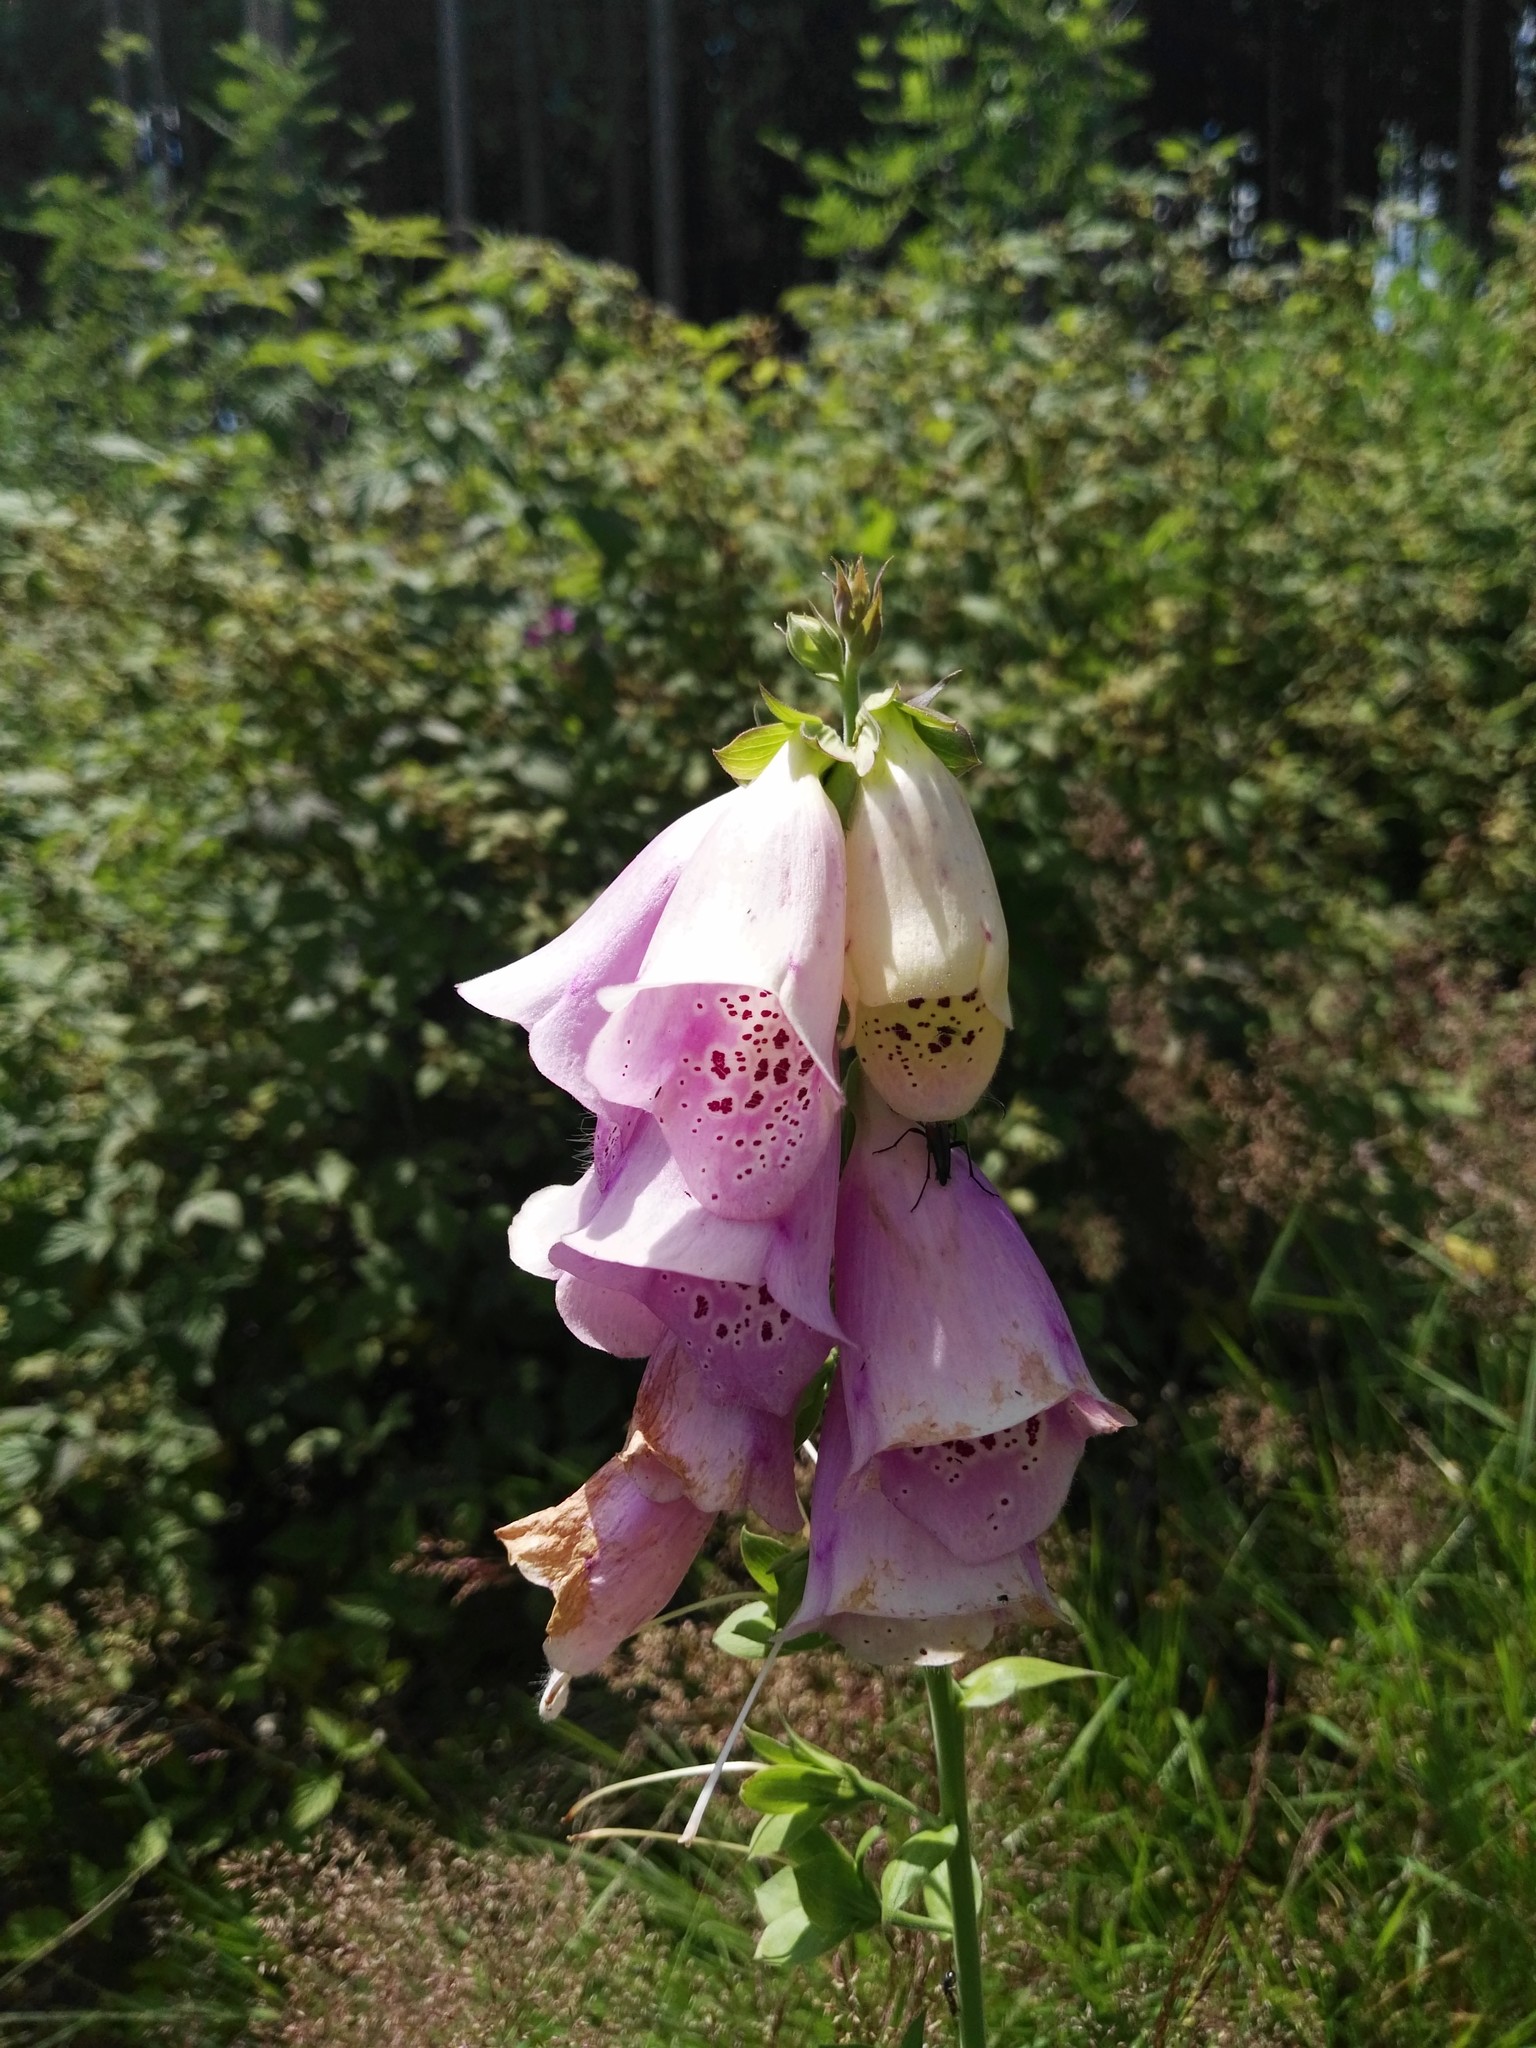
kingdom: Plantae
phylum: Tracheophyta
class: Magnoliopsida
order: Lamiales
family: Plantaginaceae
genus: Digitalis
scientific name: Digitalis purpurea
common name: Foxglove
